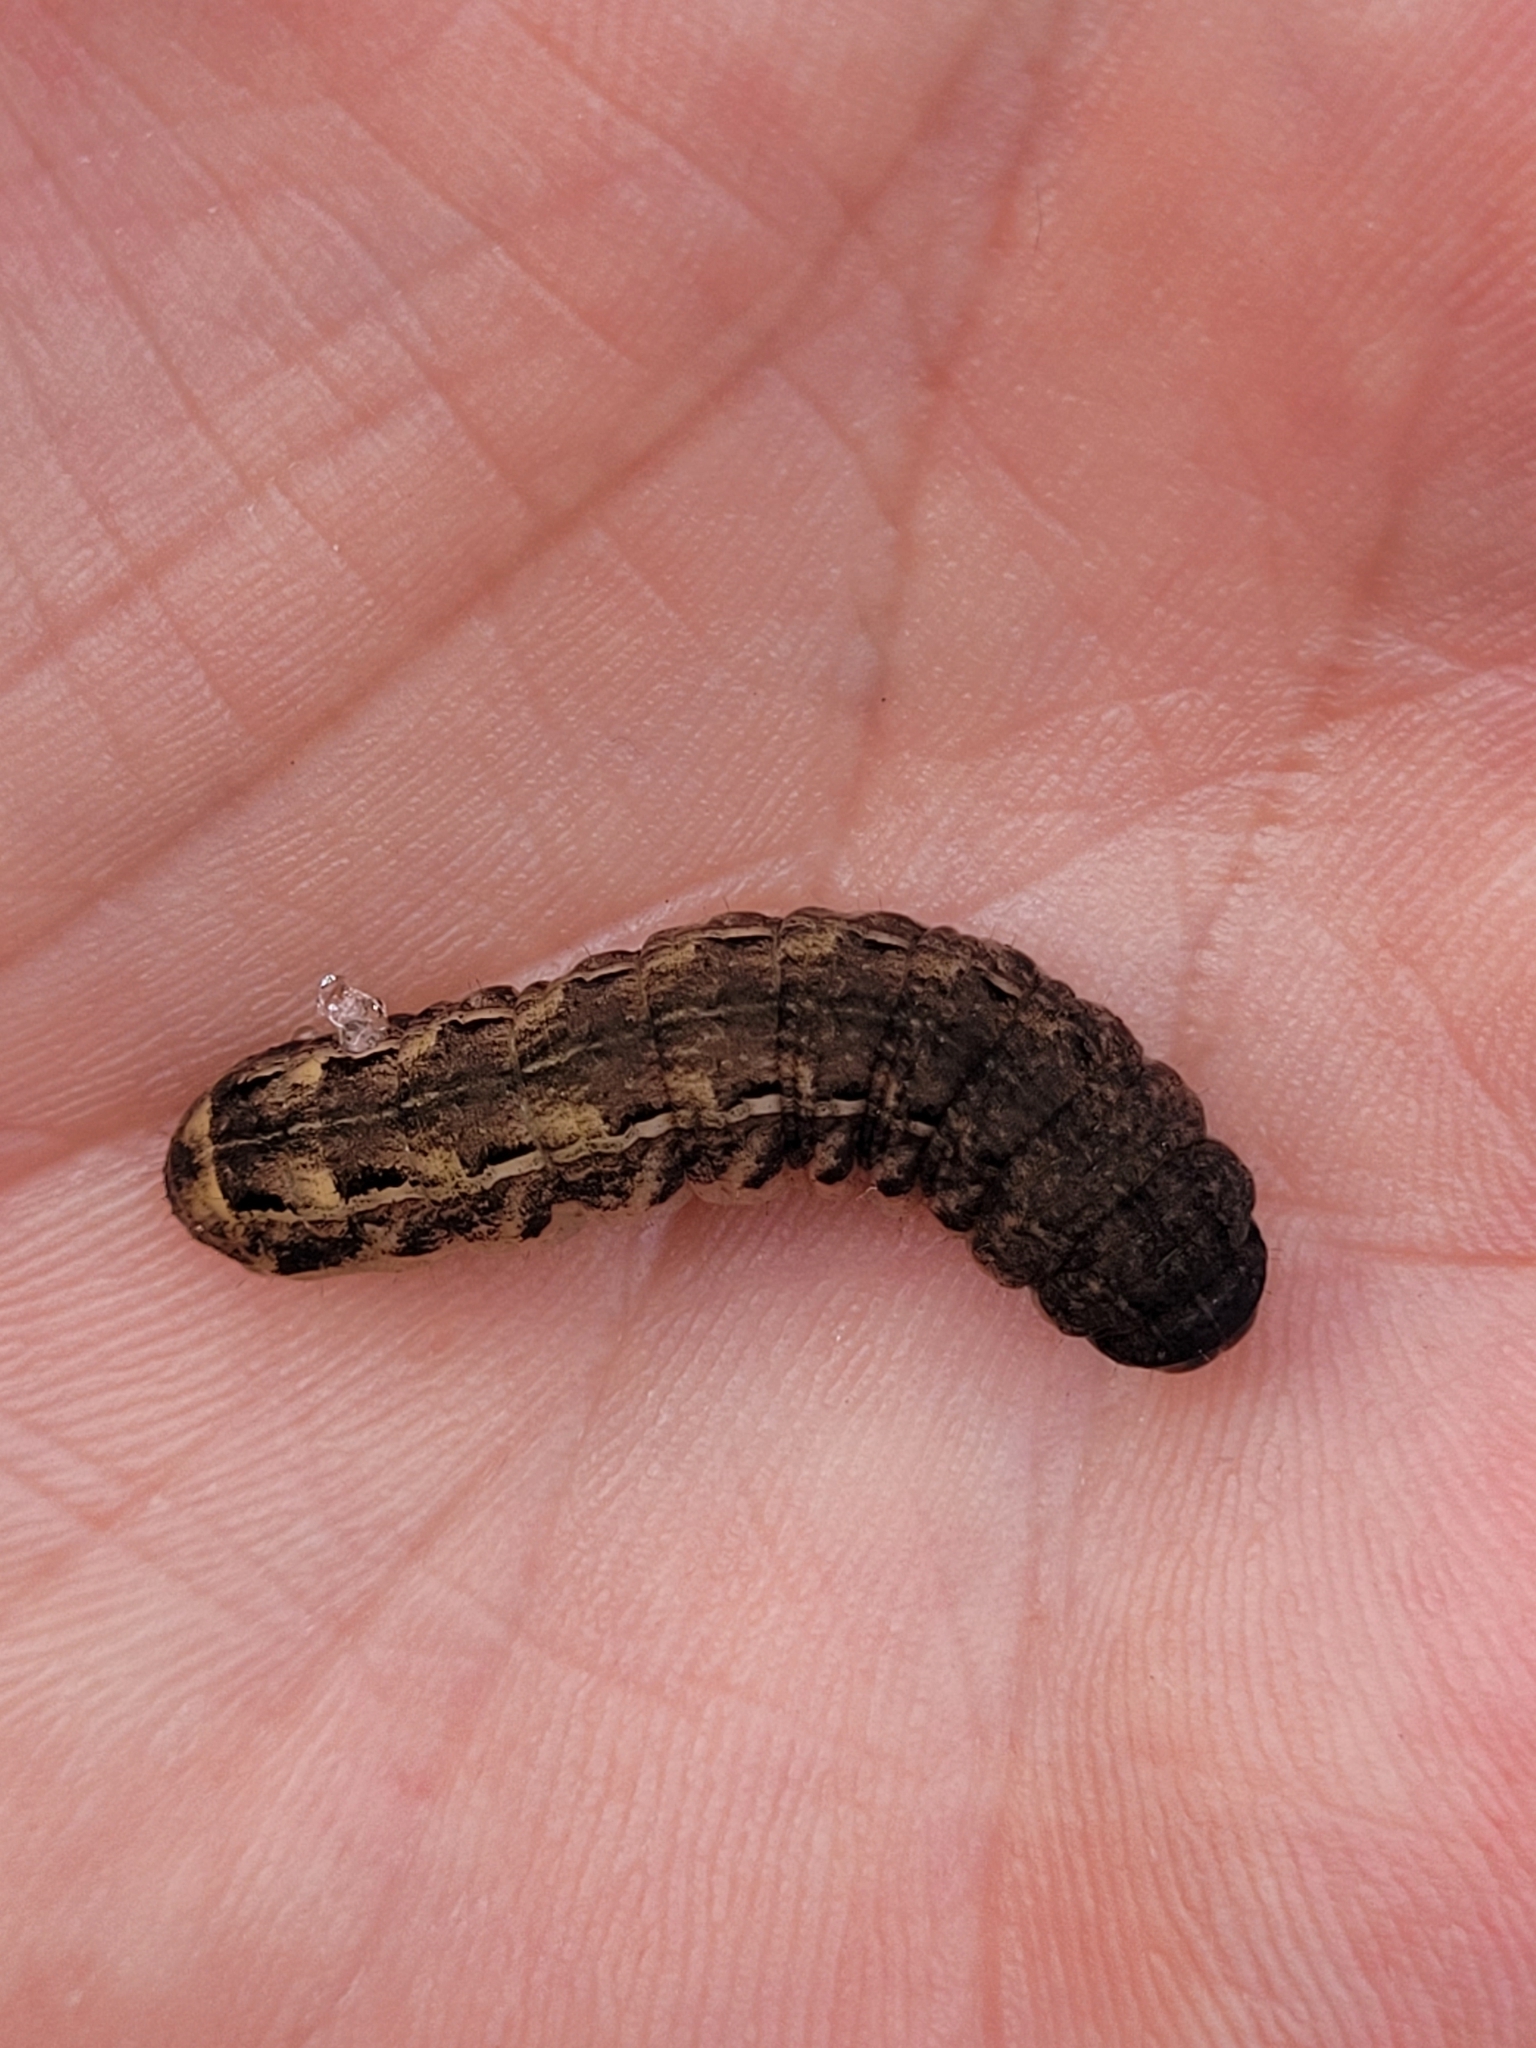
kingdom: Animalia
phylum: Arthropoda
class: Insecta
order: Lepidoptera
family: Noctuidae
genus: Noctua
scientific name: Noctua pronuba
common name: Large yellow underwing
